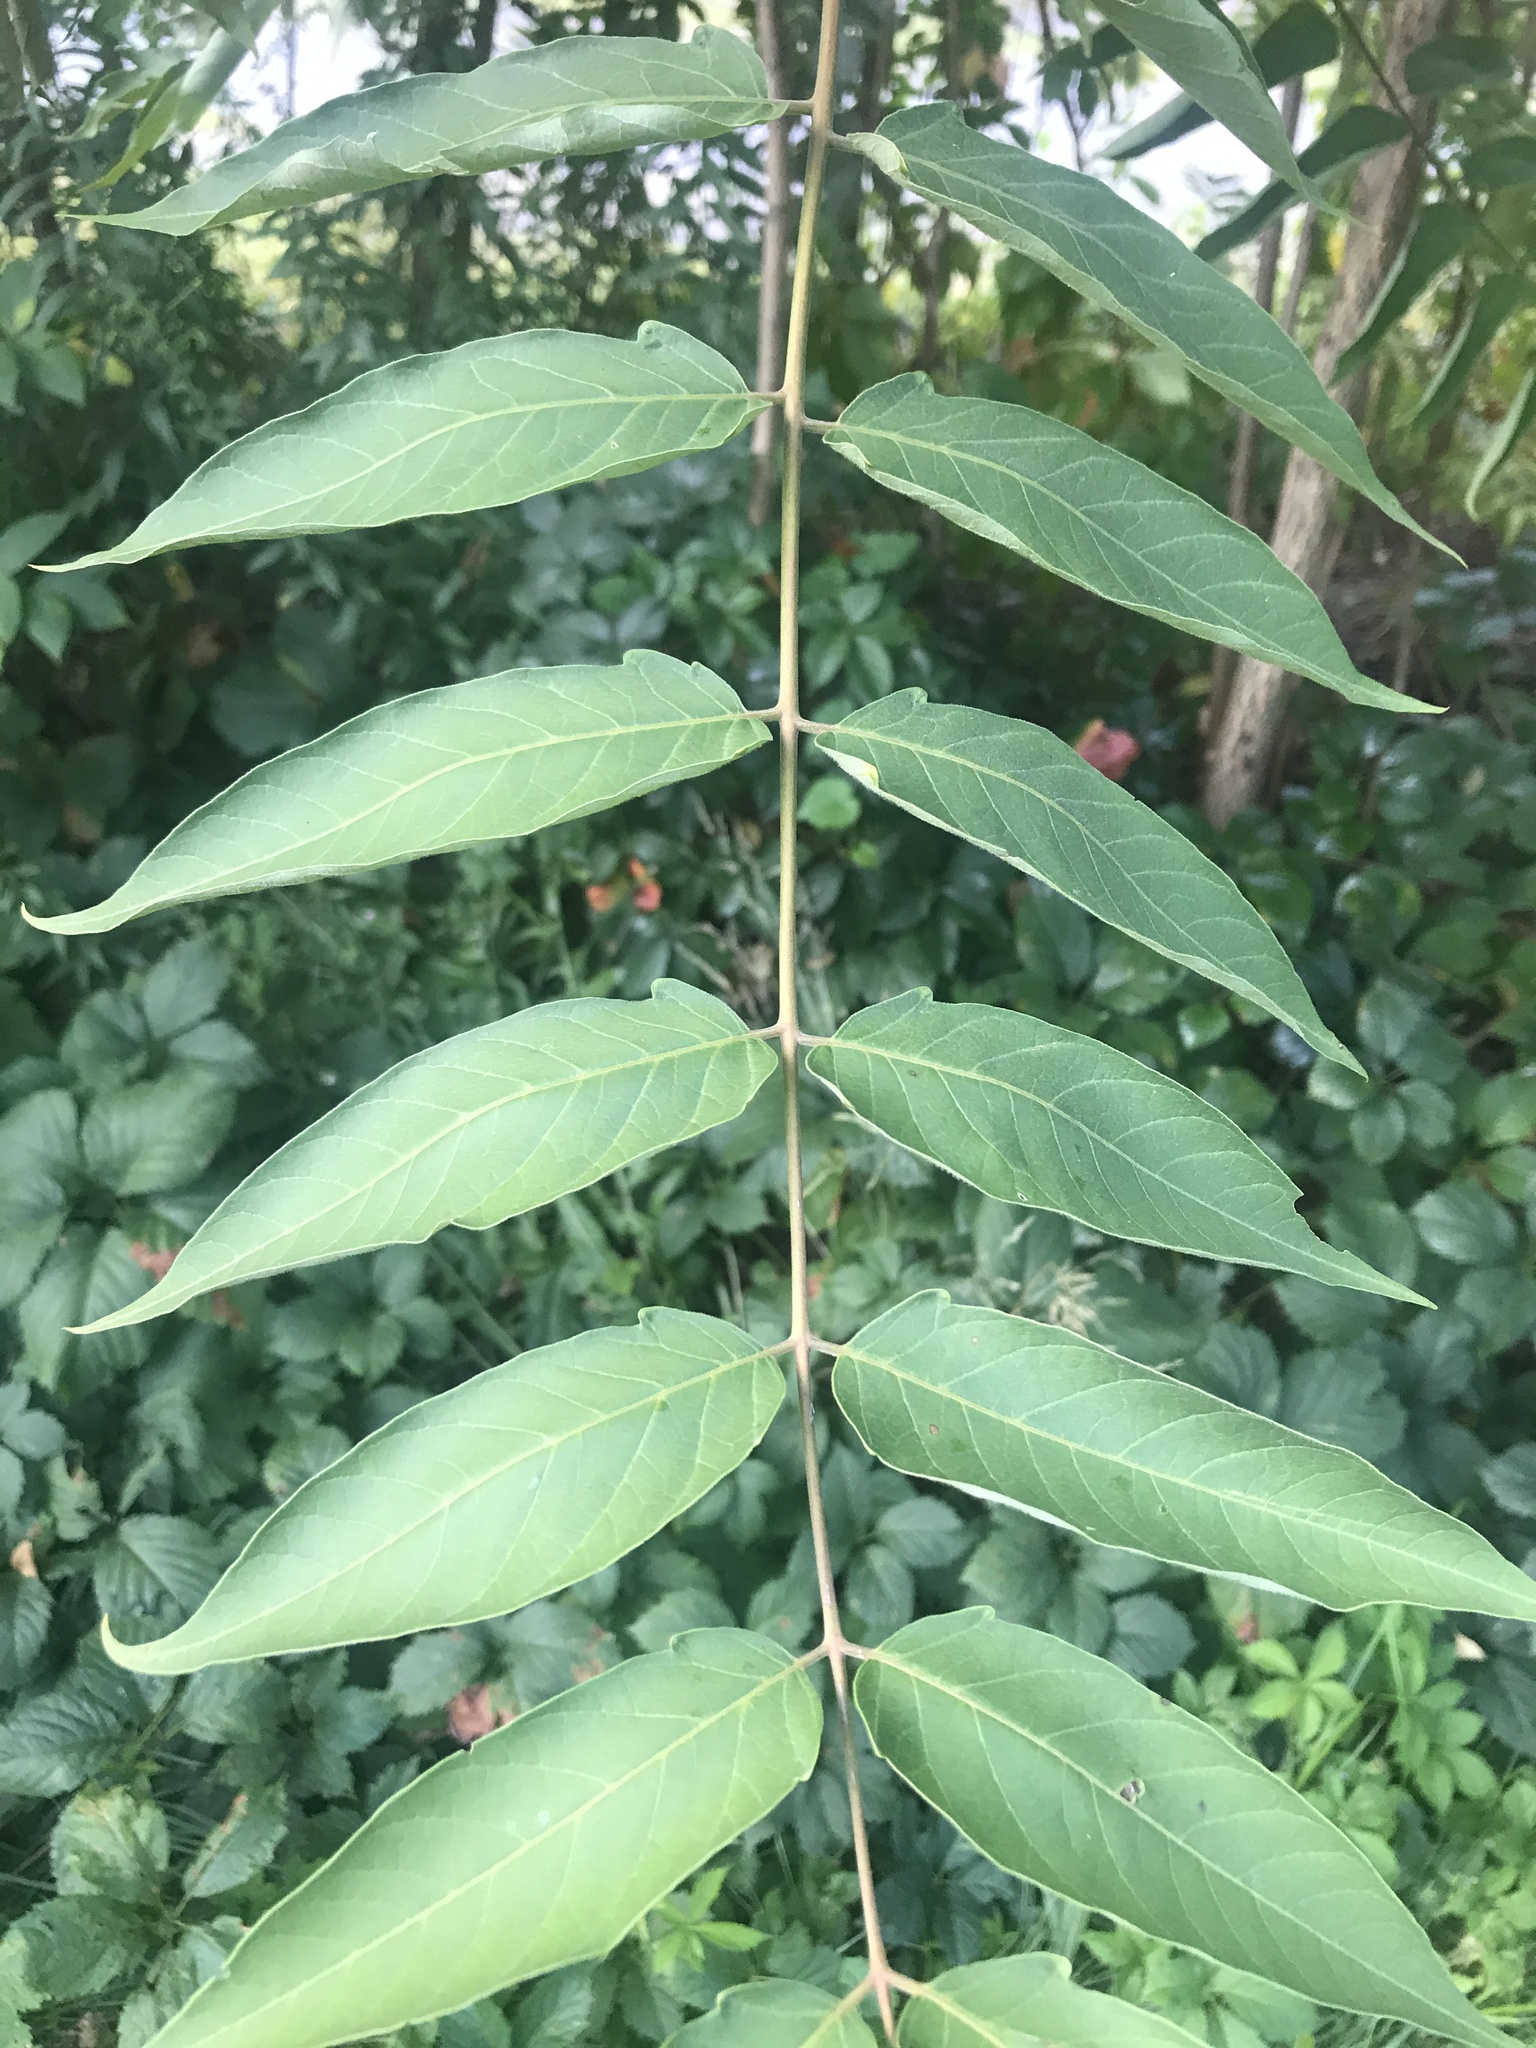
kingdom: Plantae
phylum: Tracheophyta
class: Magnoliopsida
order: Sapindales
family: Simaroubaceae
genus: Ailanthus
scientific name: Ailanthus altissima
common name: Tree-of-heaven
